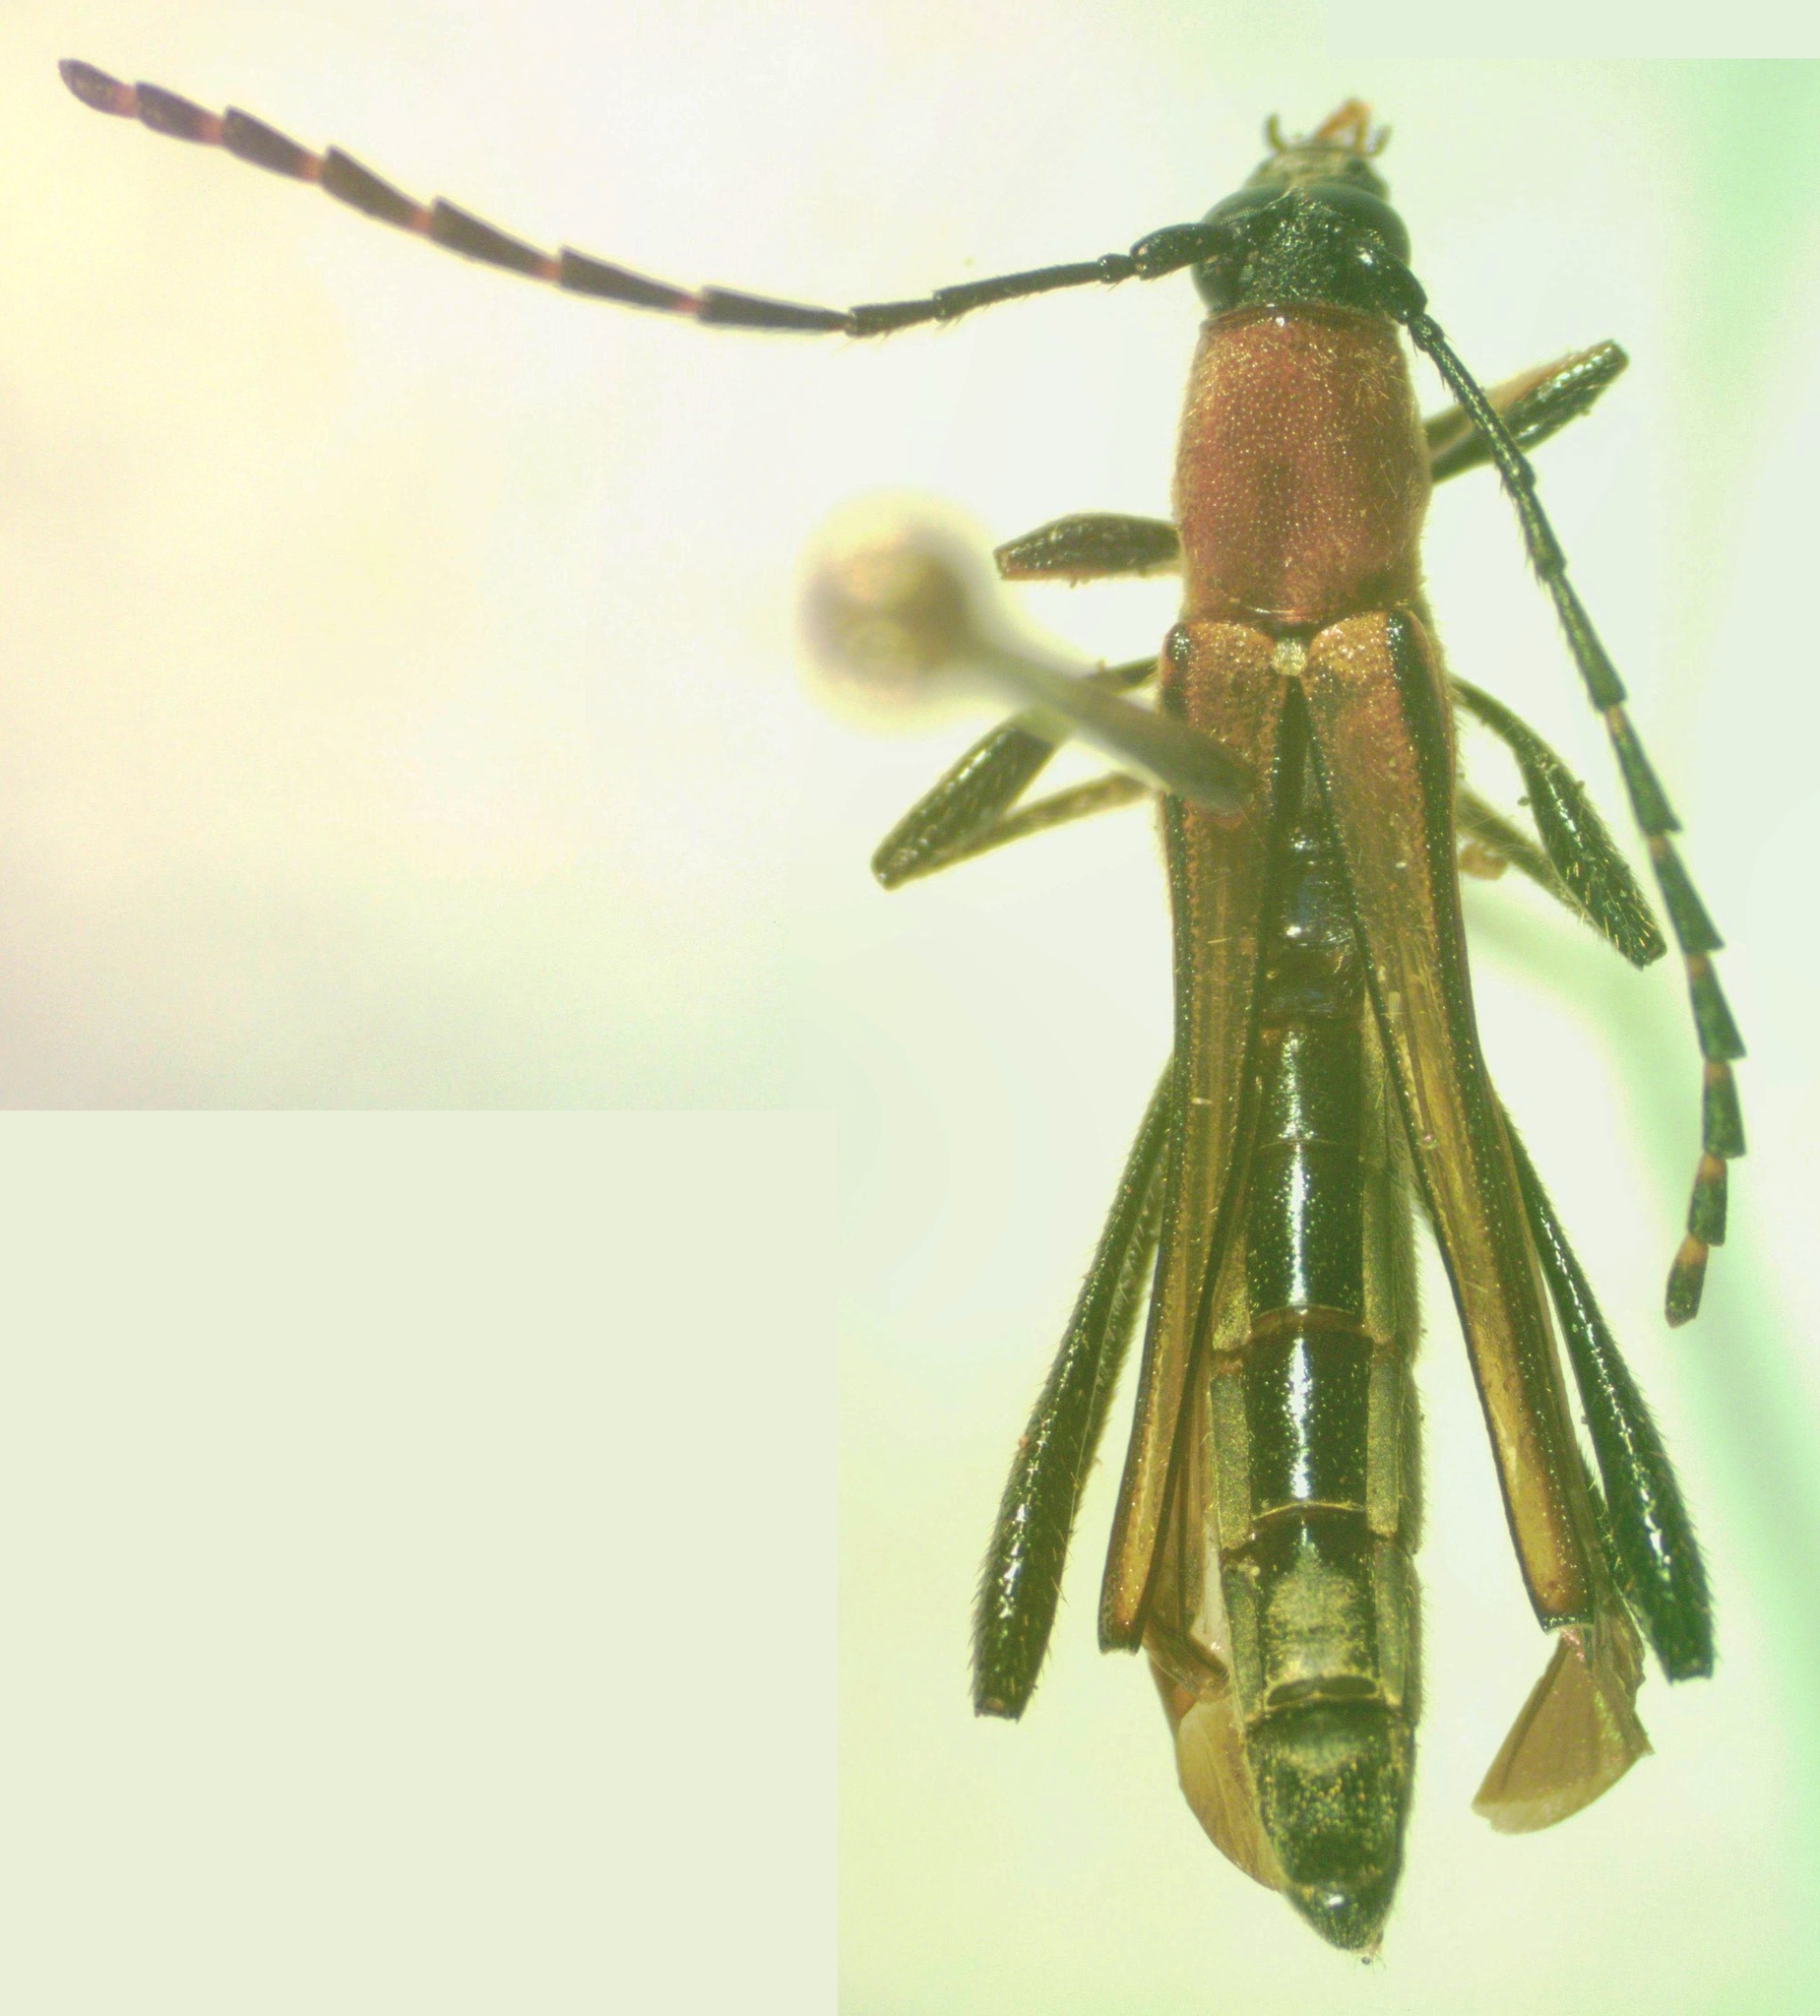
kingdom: Animalia
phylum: Arthropoda
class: Insecta
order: Coleoptera
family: Cerambycidae
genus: Odontocera
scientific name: Odontocera clara
